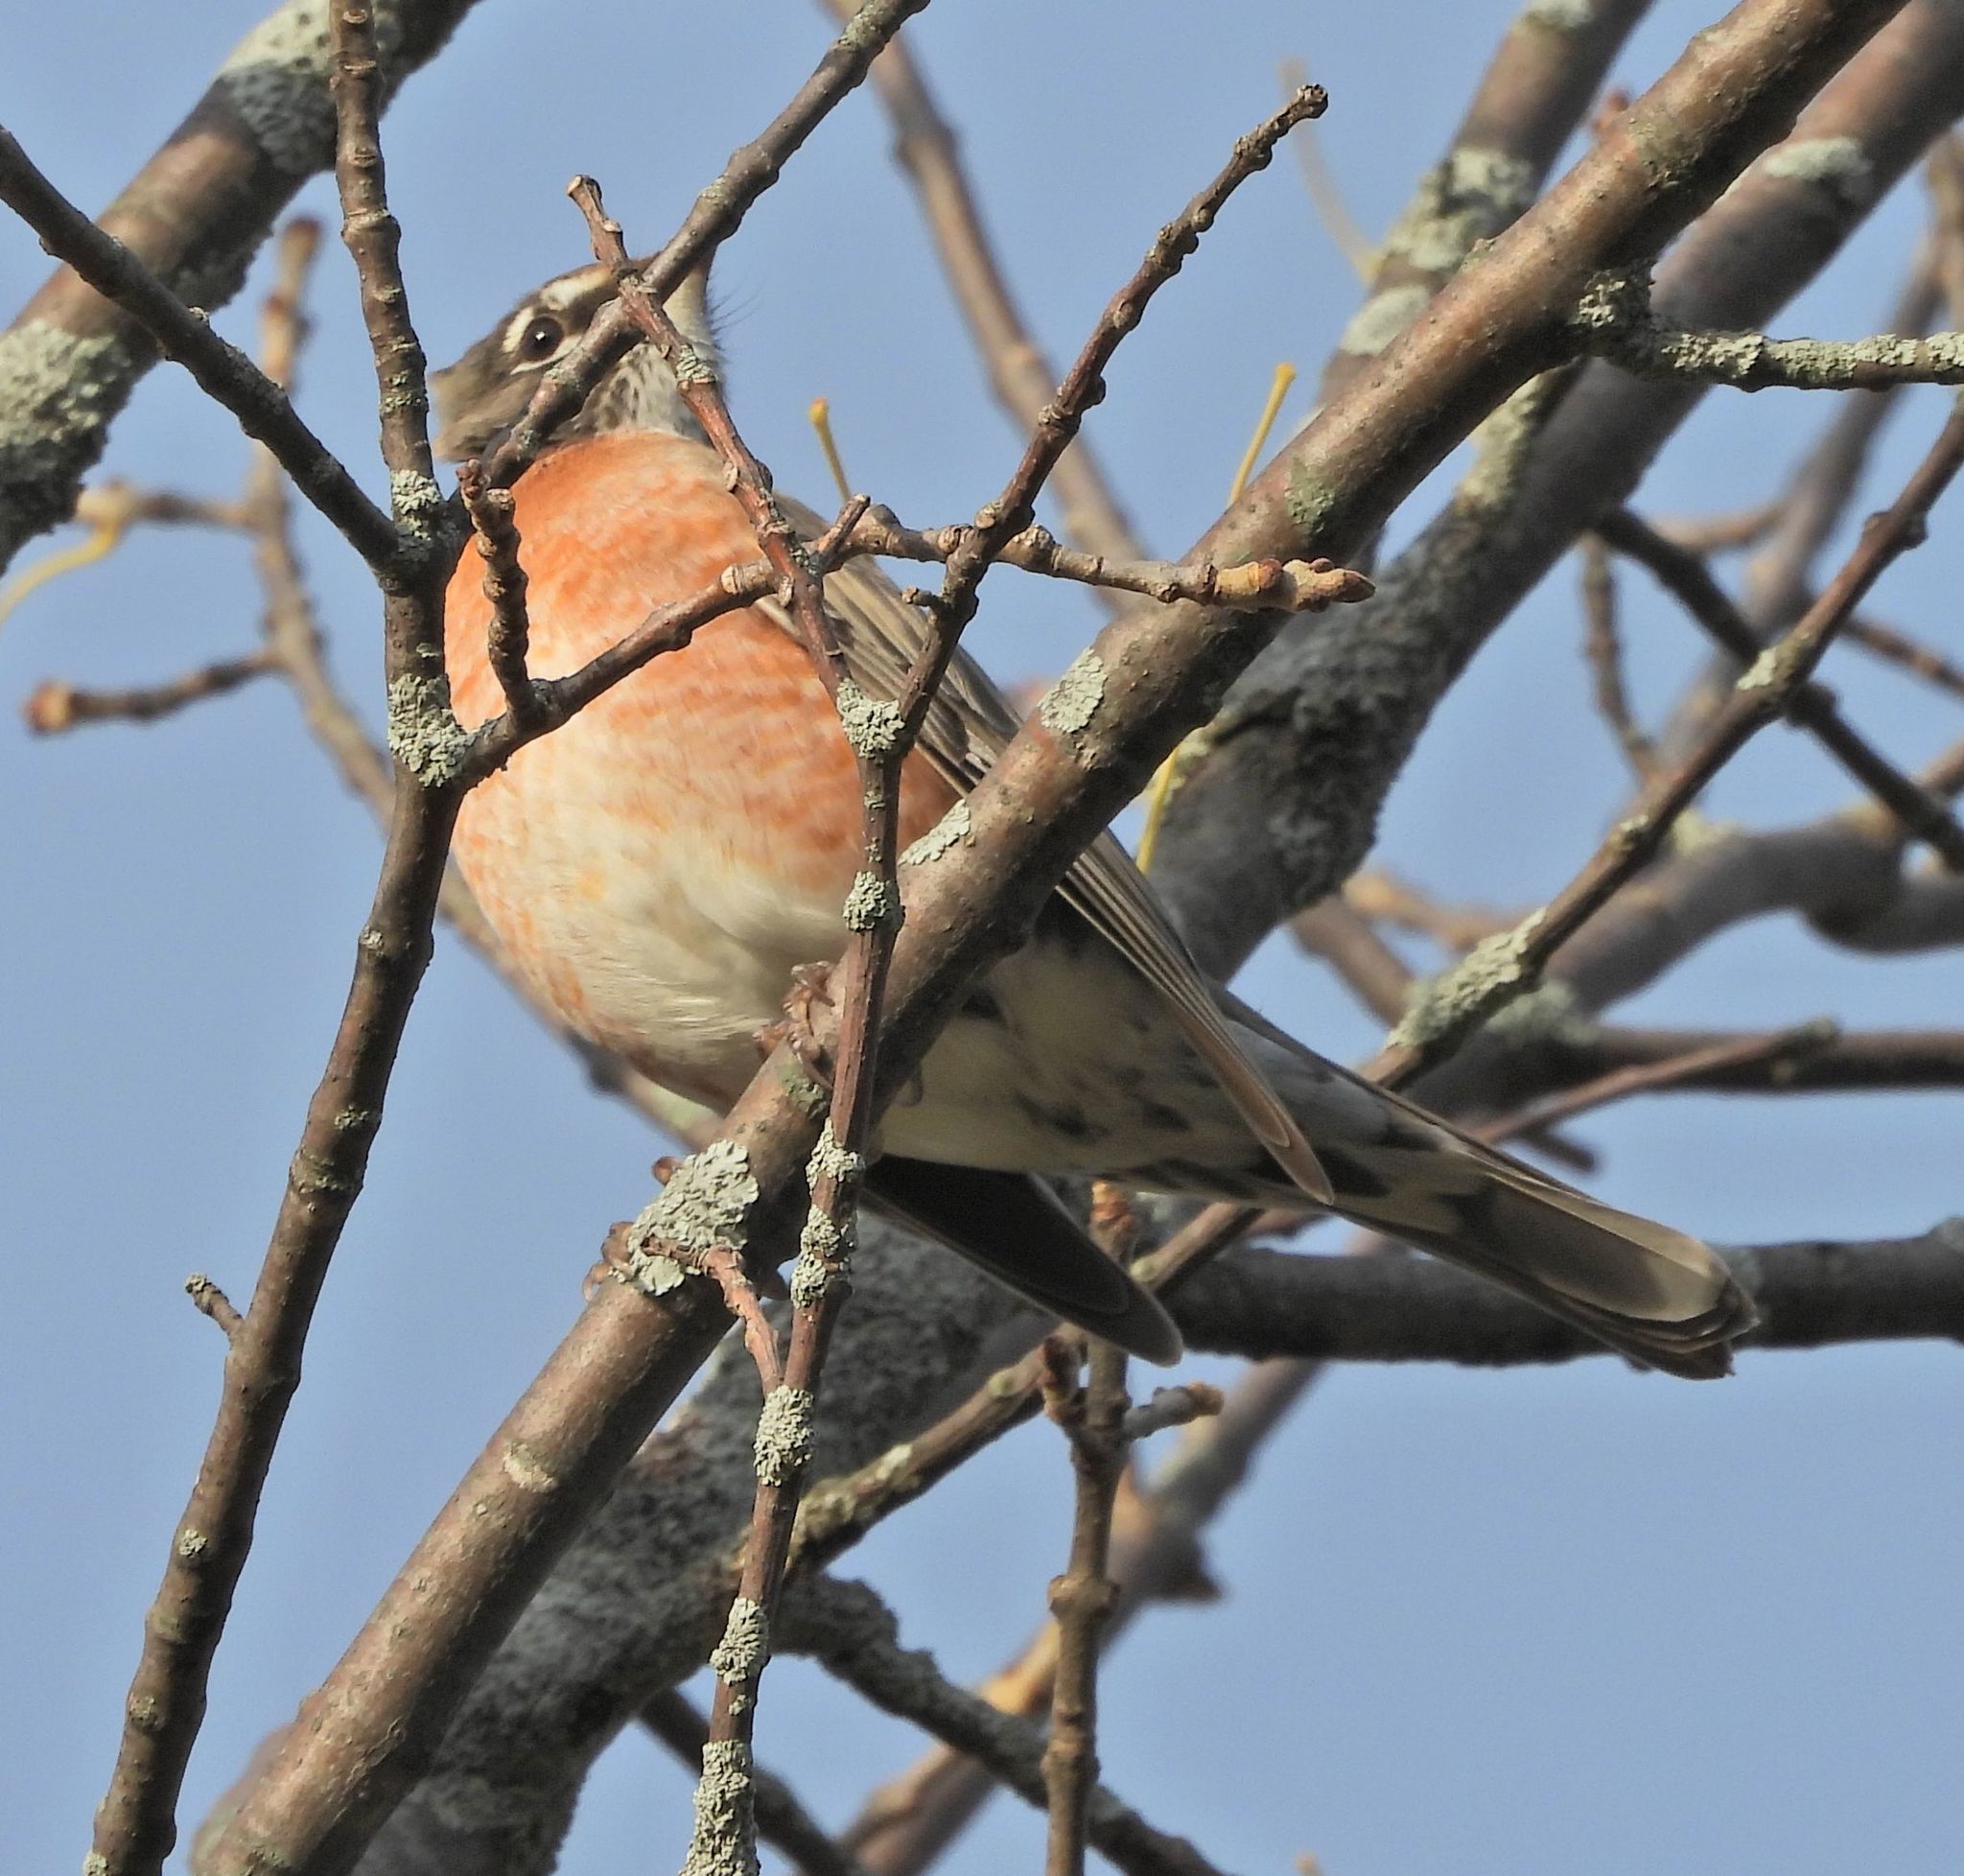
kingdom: Animalia
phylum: Chordata
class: Aves
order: Passeriformes
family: Turdidae
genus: Turdus
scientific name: Turdus migratorius
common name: American robin
